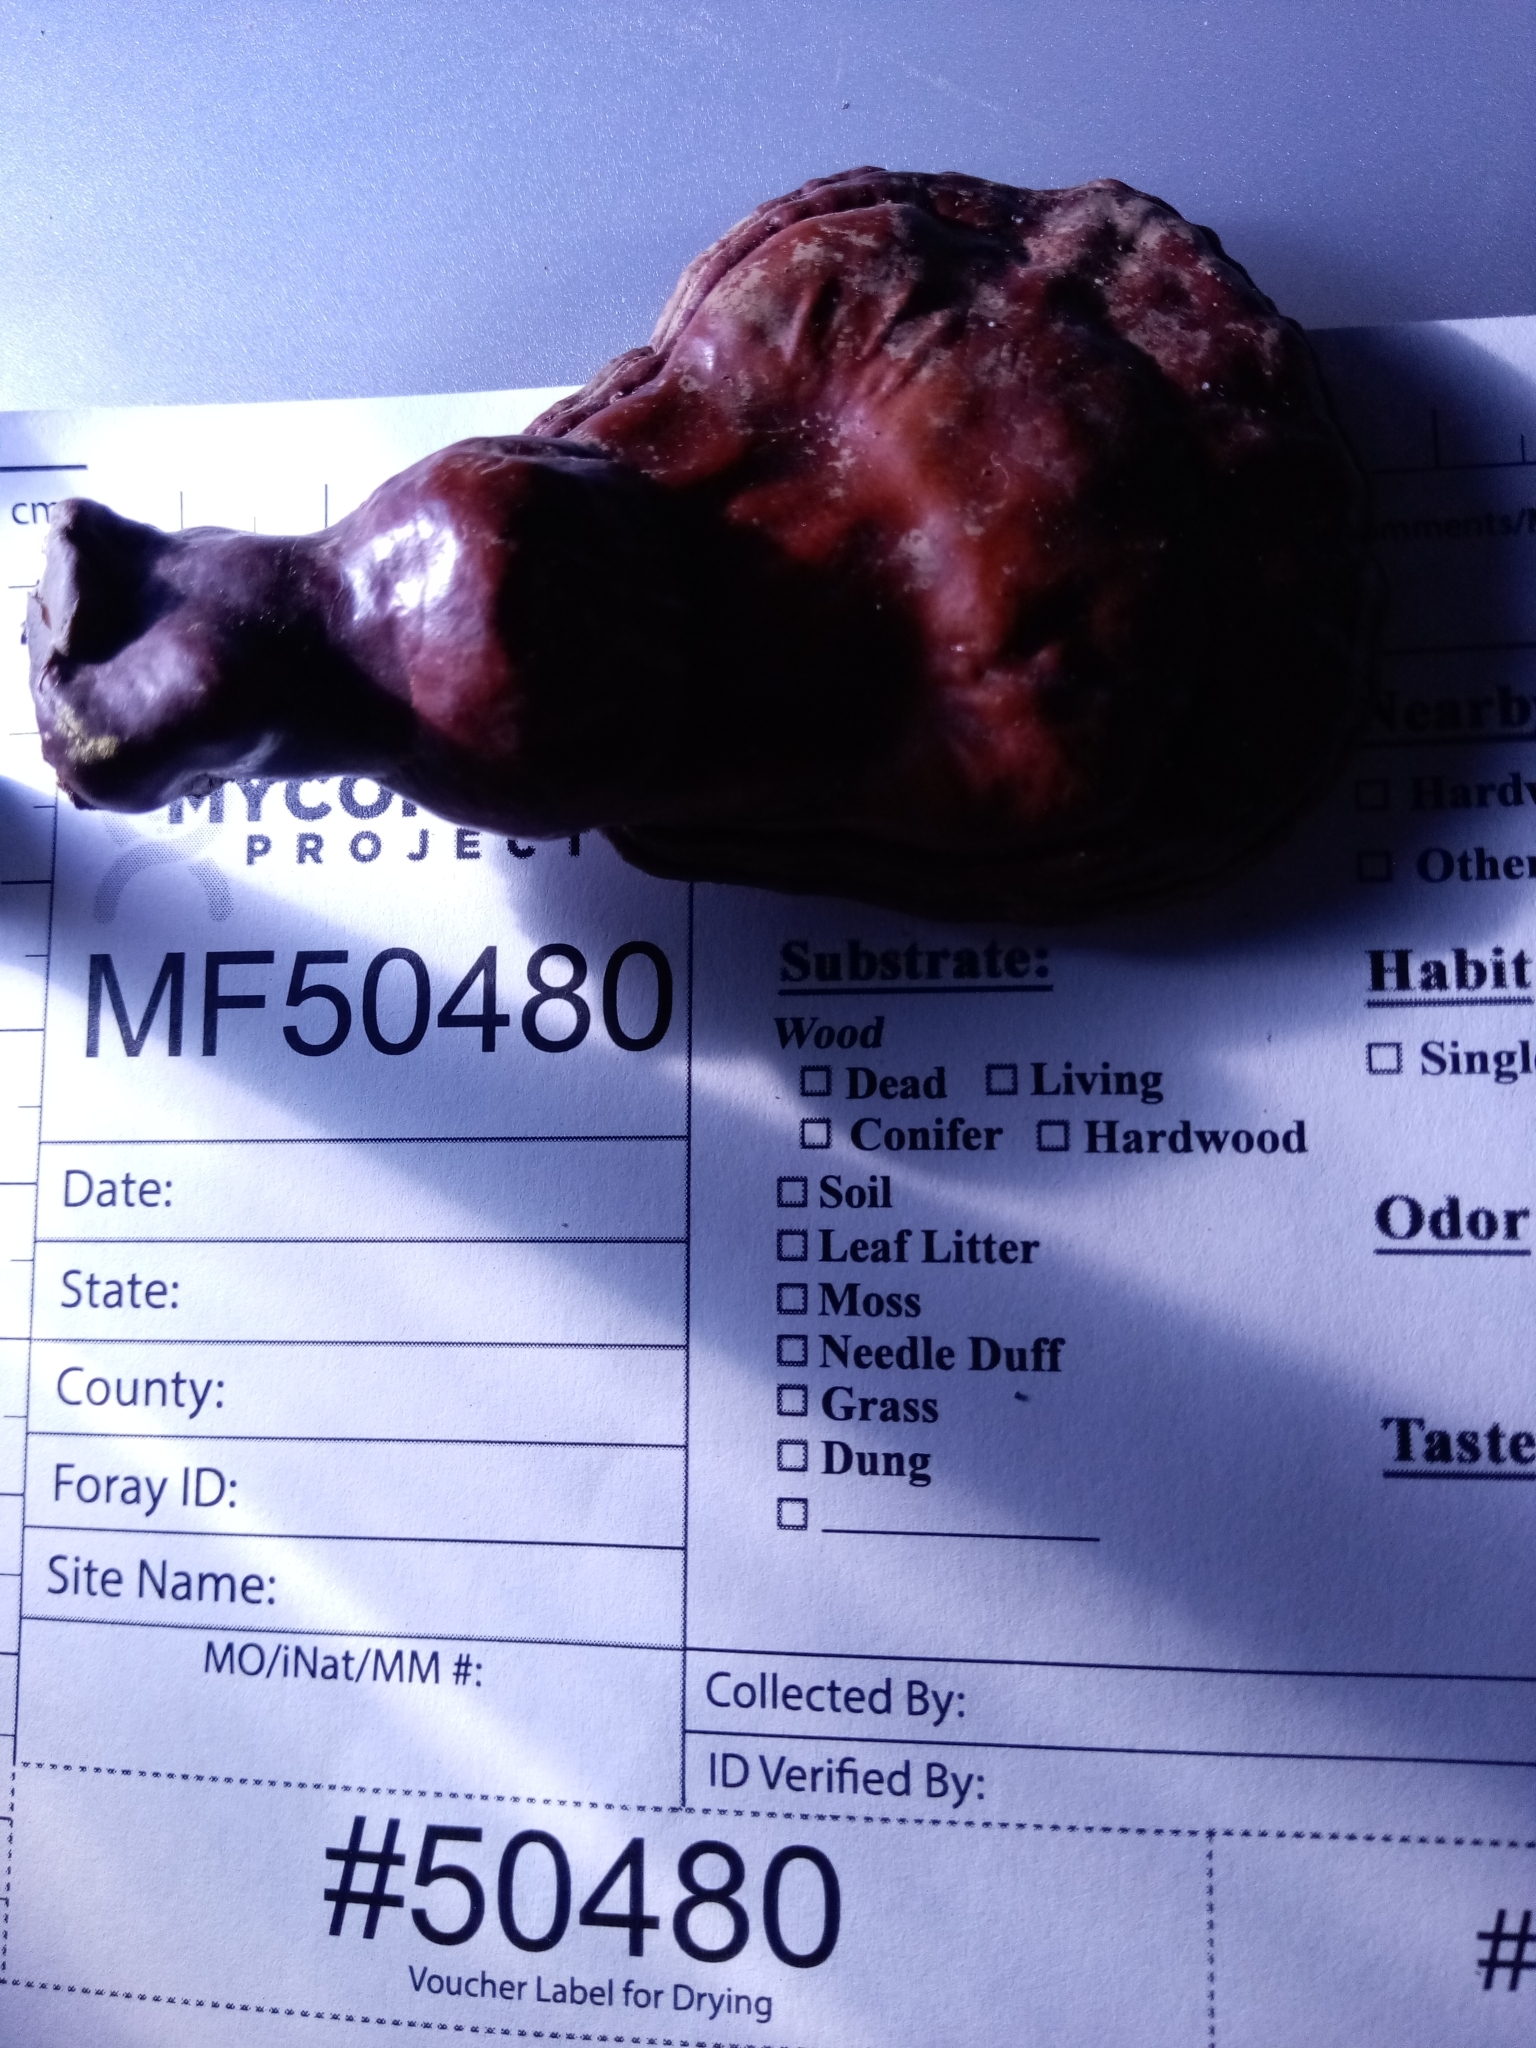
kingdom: Fungi
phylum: Basidiomycota
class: Agaricomycetes
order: Polyporales
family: Polyporaceae
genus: Ganoderma
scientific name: Ganoderma tsugae
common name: Hemlock varnish shelf
